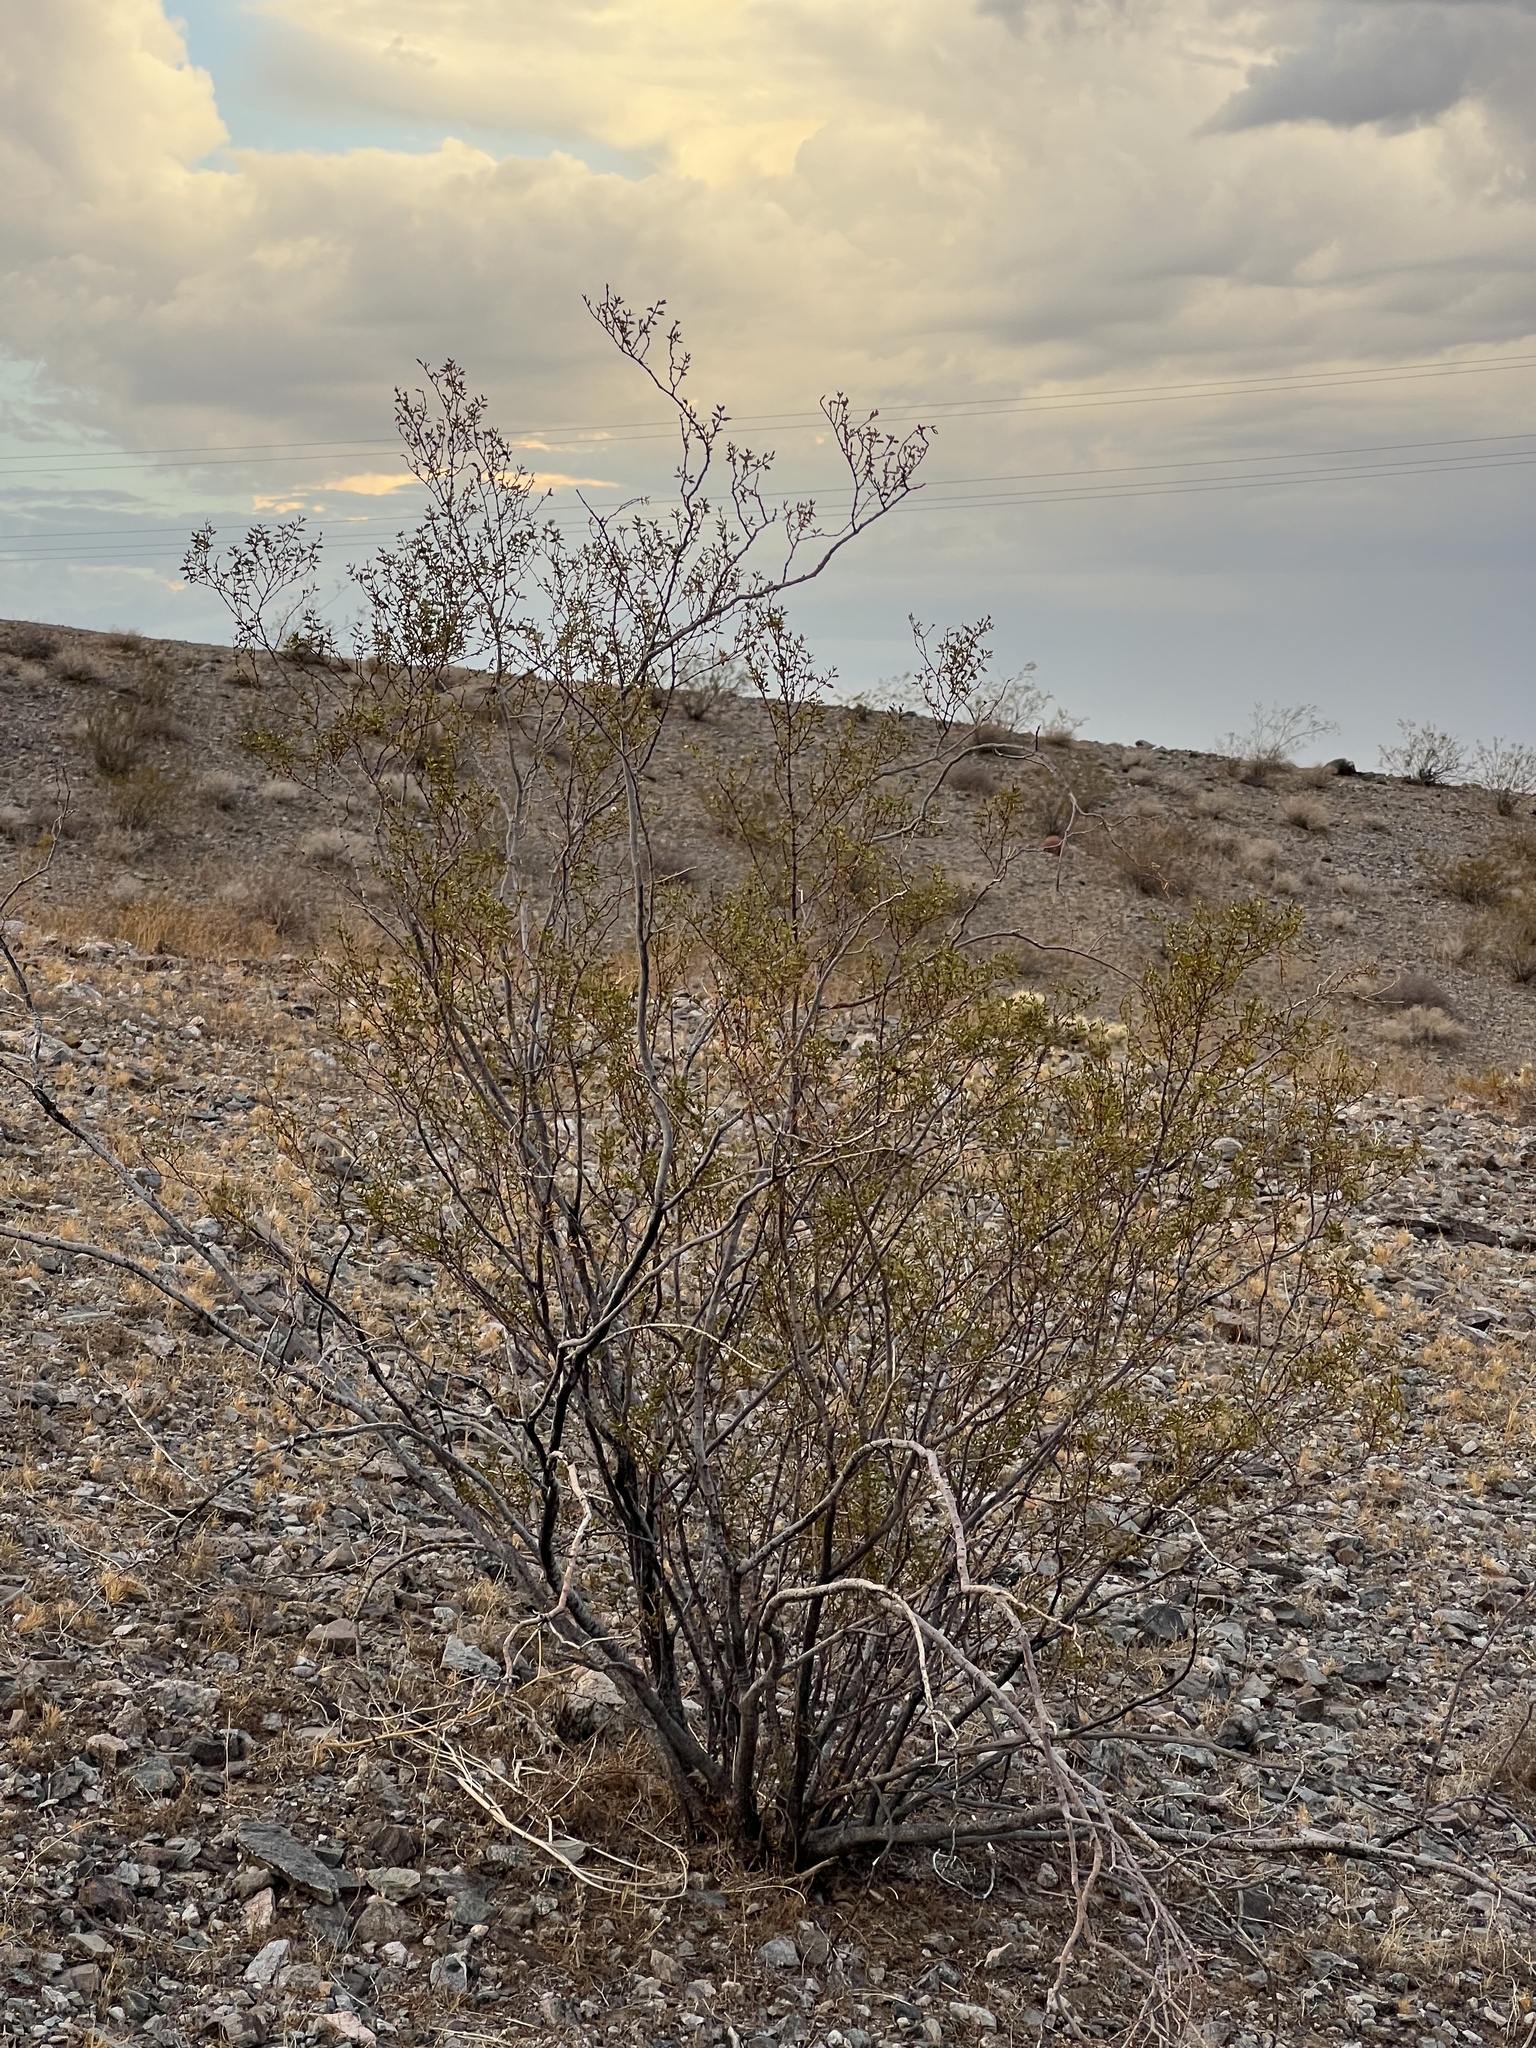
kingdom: Plantae
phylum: Tracheophyta
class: Magnoliopsida
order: Zygophyllales
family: Zygophyllaceae
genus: Larrea
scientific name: Larrea tridentata
